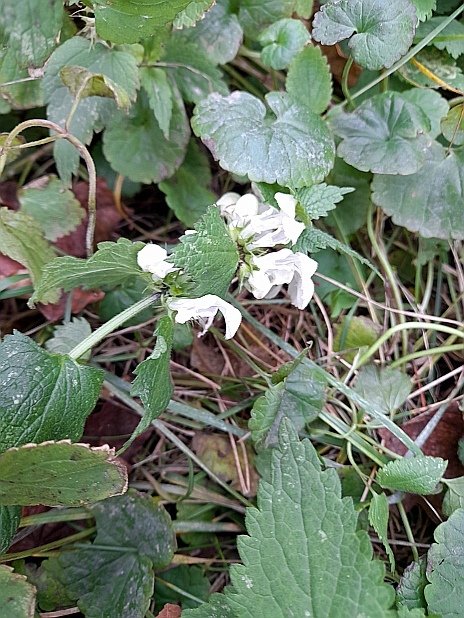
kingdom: Plantae
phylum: Tracheophyta
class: Magnoliopsida
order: Lamiales
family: Lamiaceae
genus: Lamium
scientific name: Lamium album
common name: White dead-nettle
